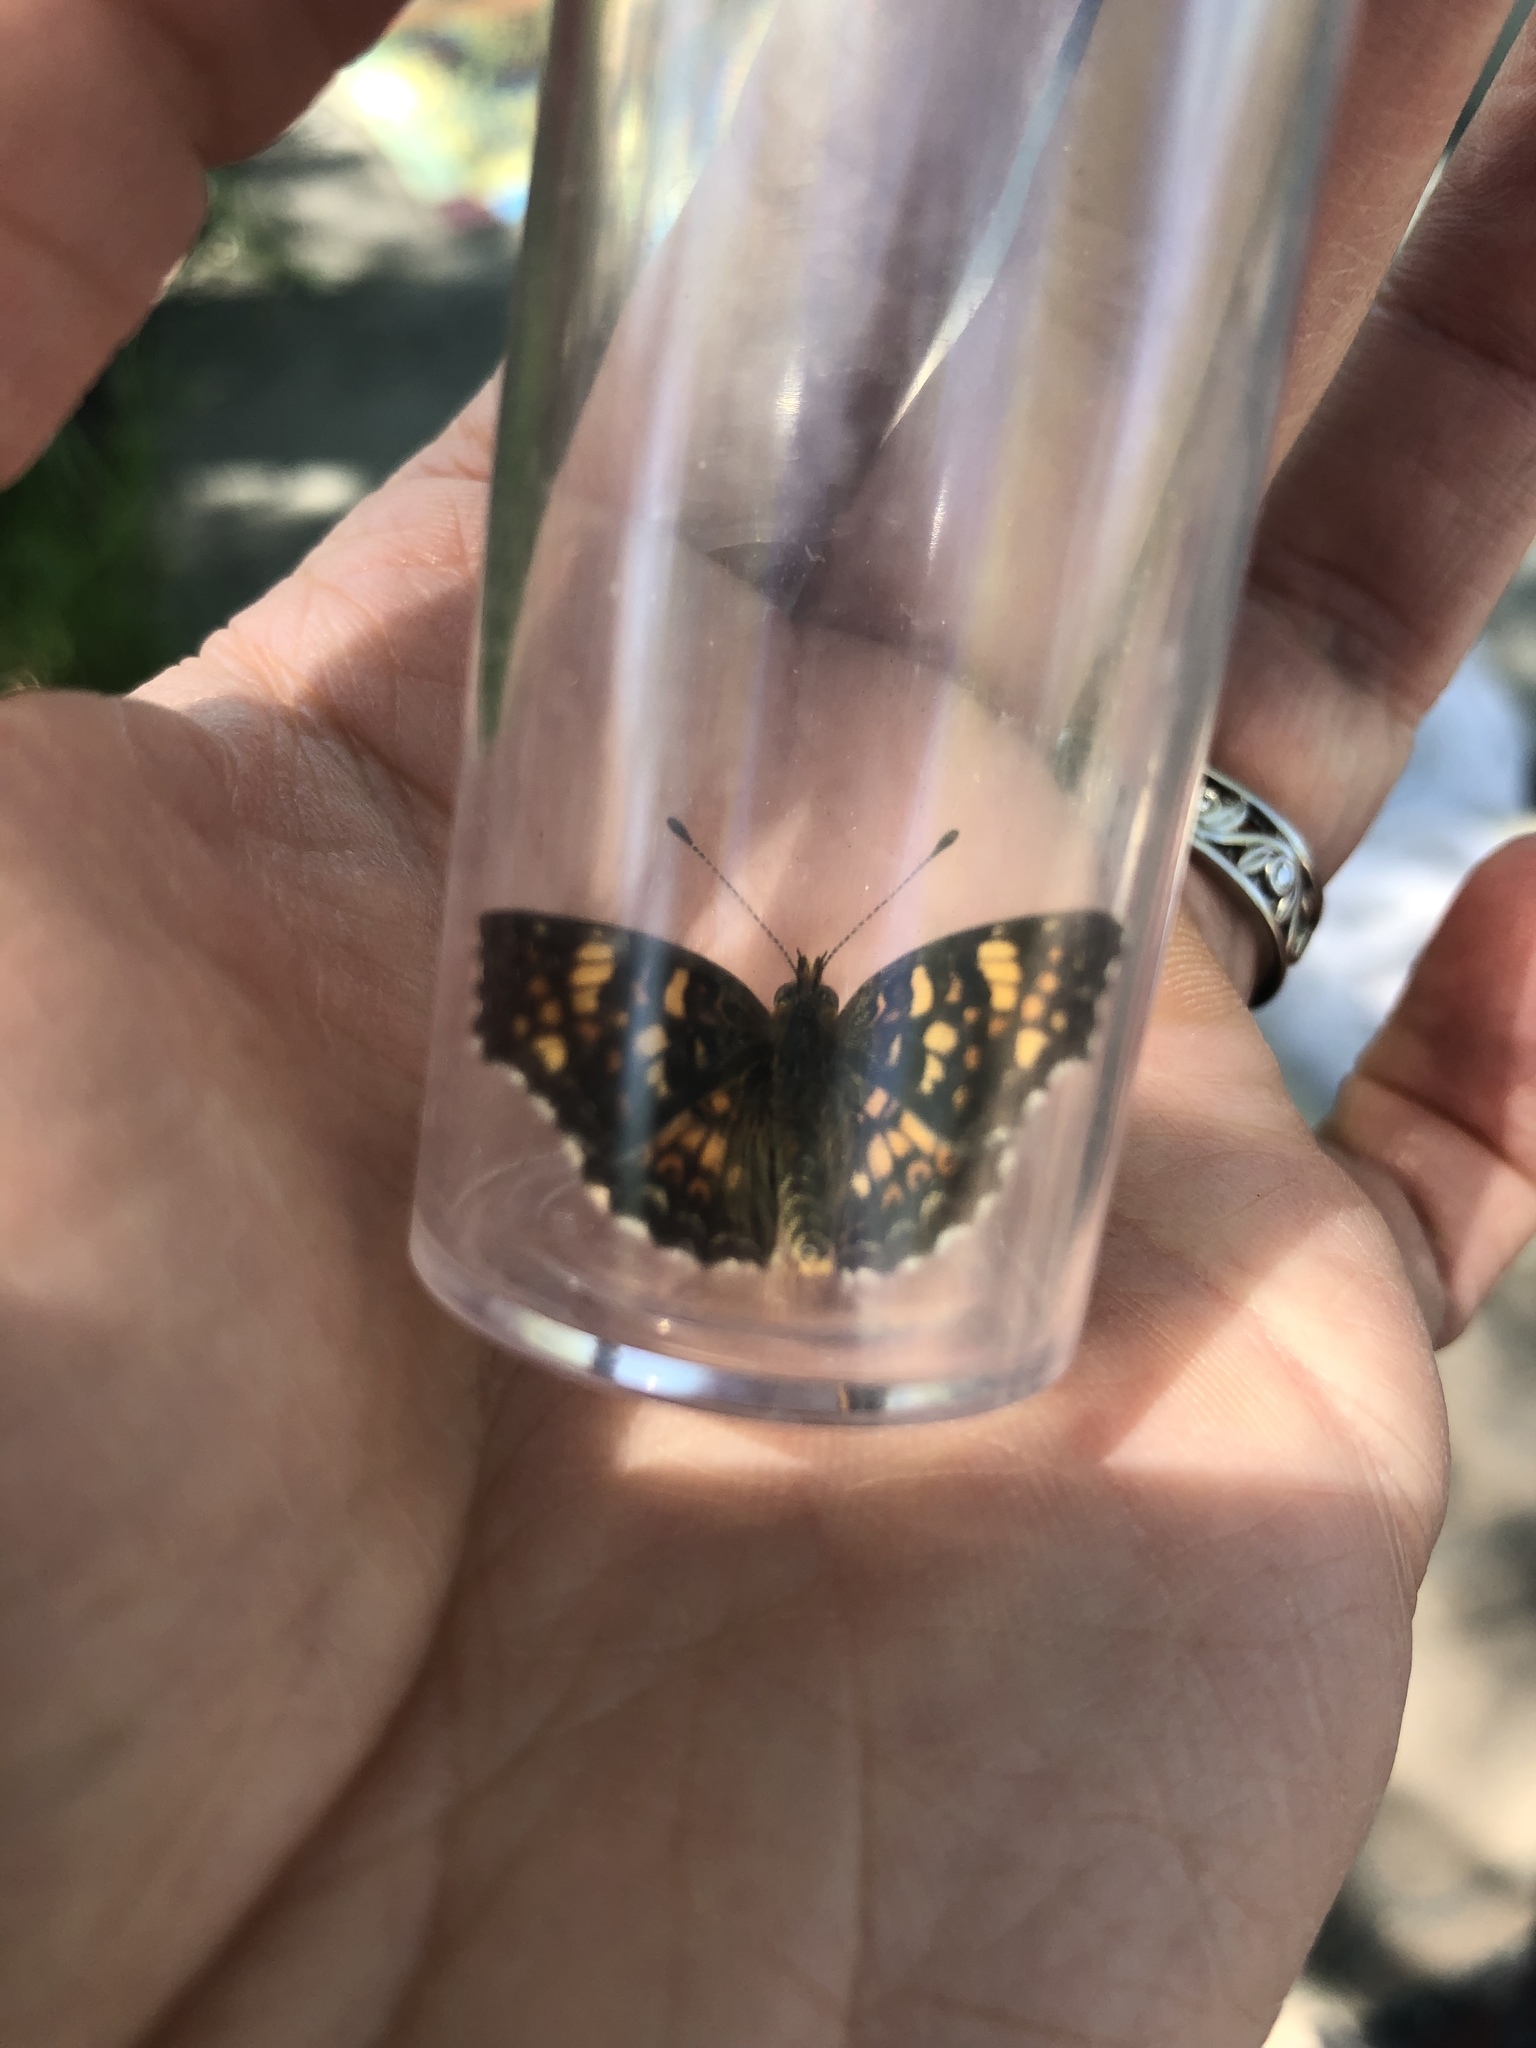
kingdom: Animalia
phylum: Arthropoda
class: Insecta
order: Lepidoptera
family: Nymphalidae
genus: Phyciodes
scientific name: Phyciodes tharos
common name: Pearl crescent
